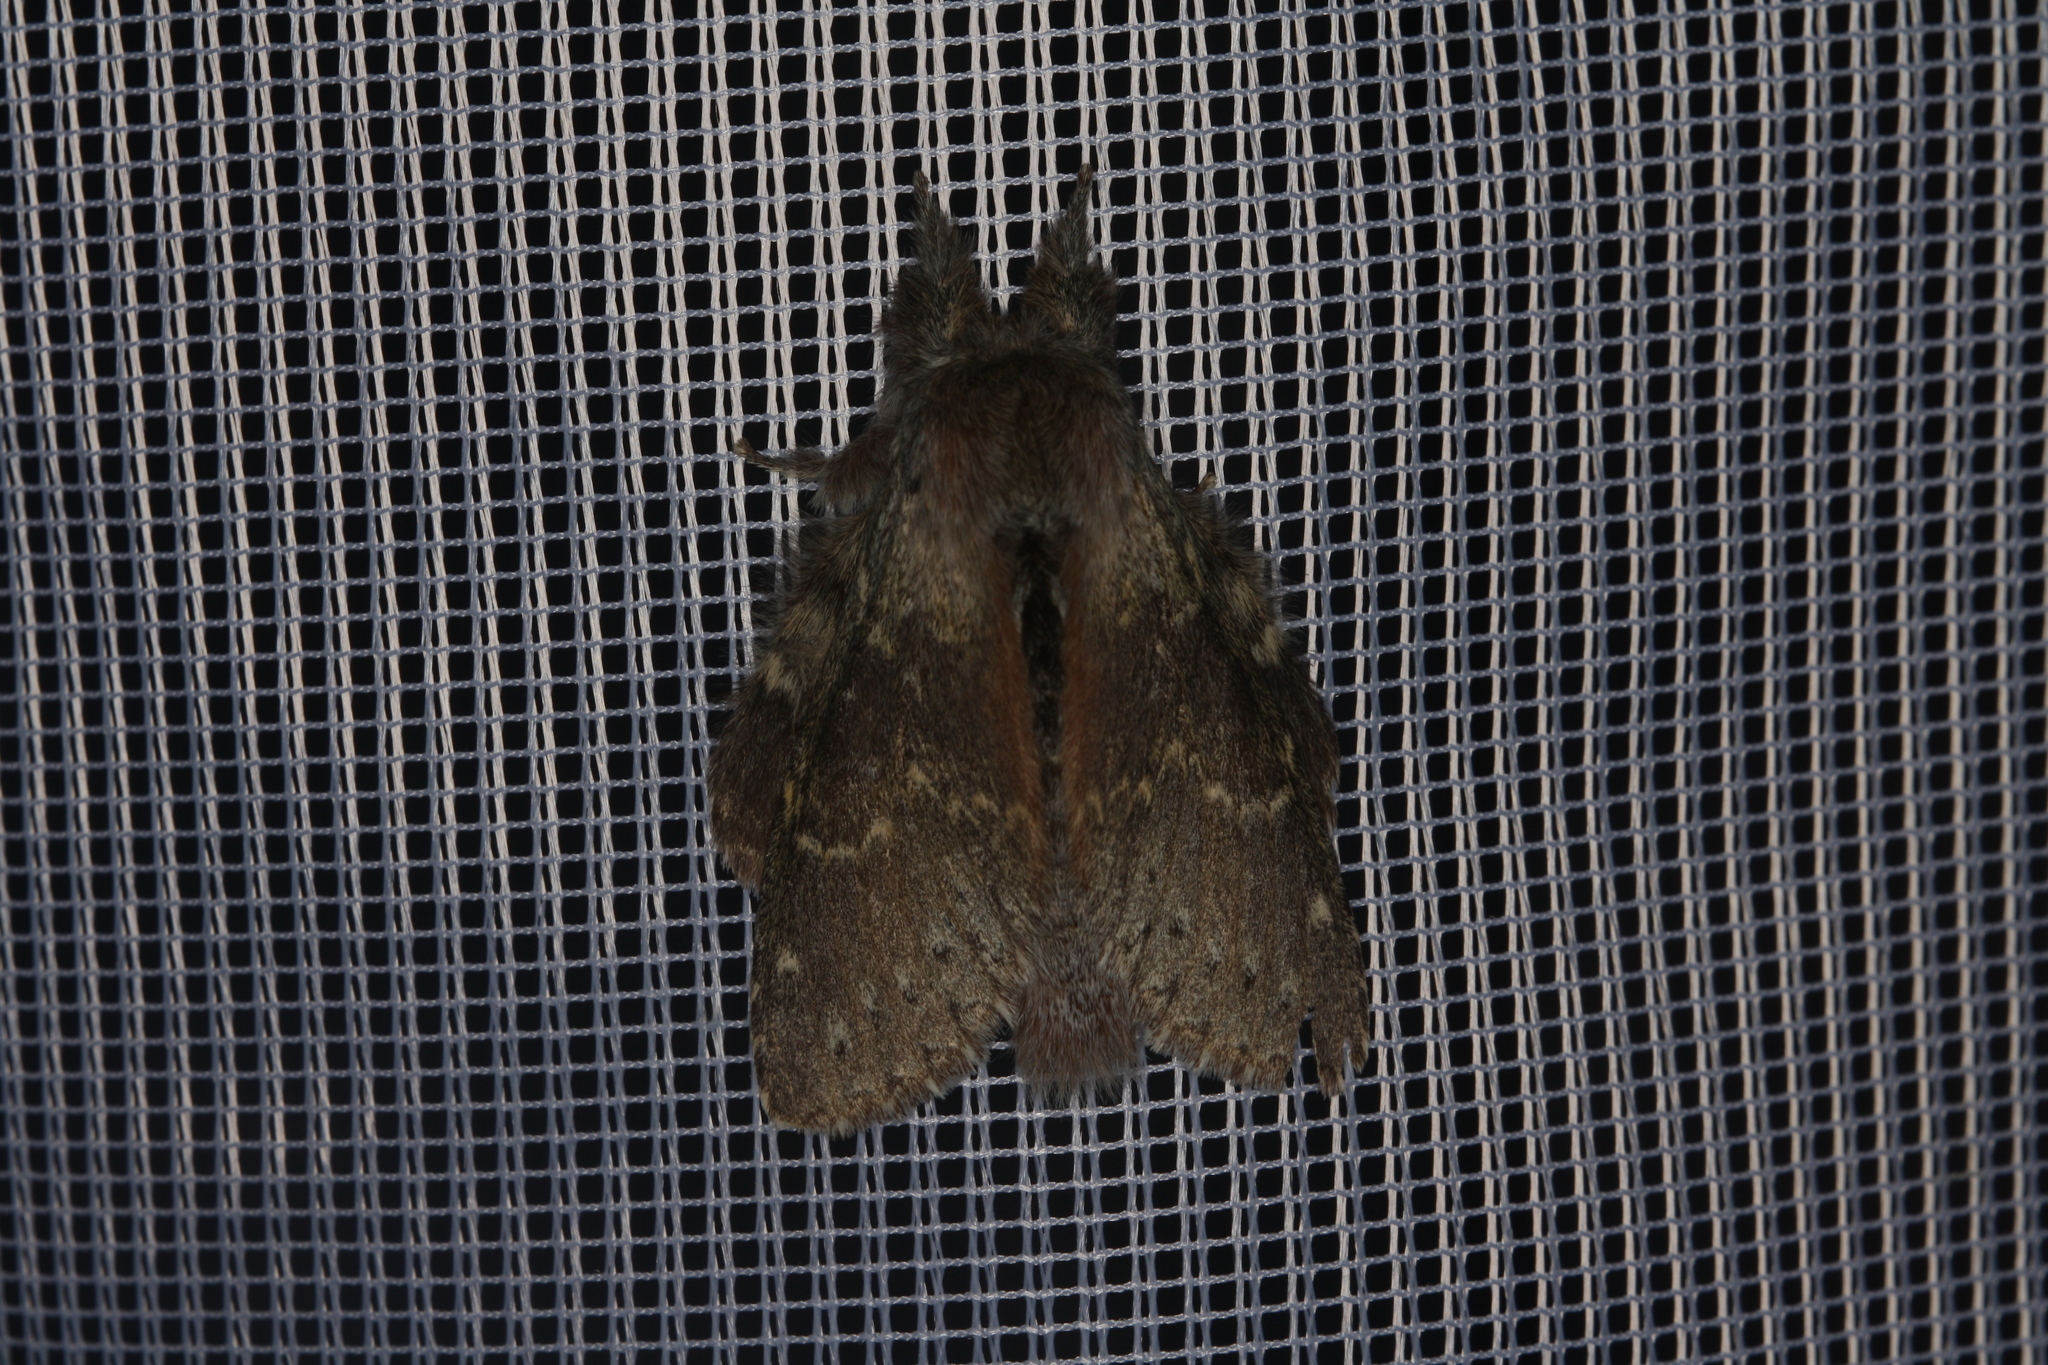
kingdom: Animalia
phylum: Arthropoda
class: Insecta
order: Lepidoptera
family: Notodontidae
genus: Stauropus
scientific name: Stauropus fagi
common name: Lobster moth
